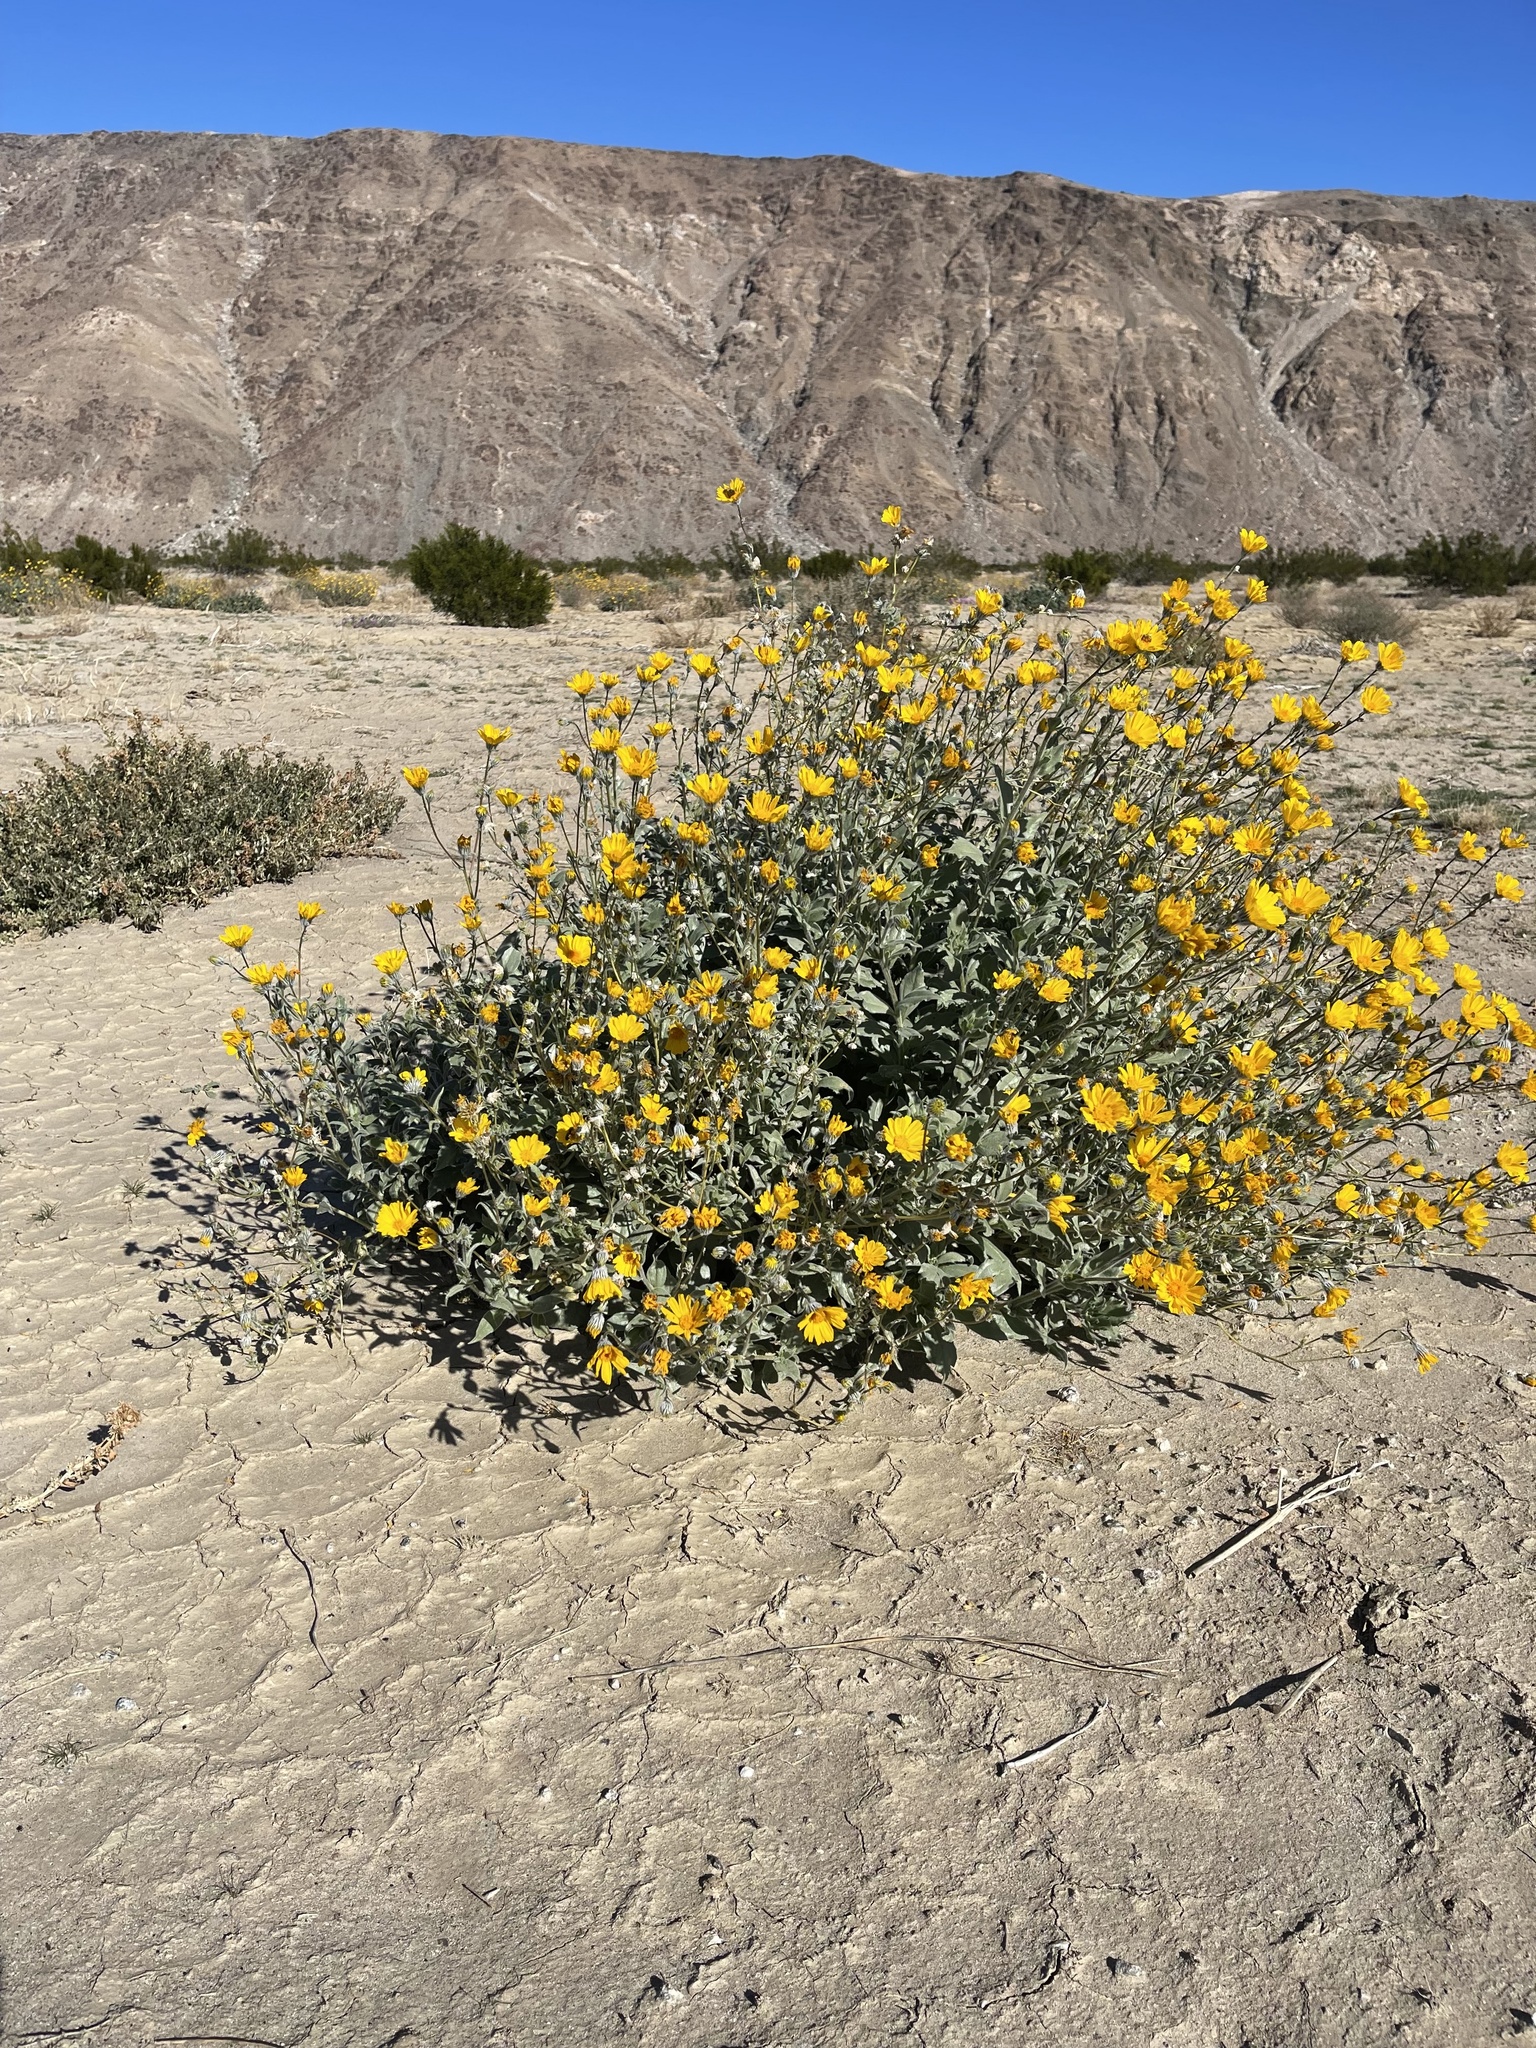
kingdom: Plantae
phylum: Tracheophyta
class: Magnoliopsida
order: Asterales
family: Asteraceae
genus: Geraea
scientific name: Geraea canescens
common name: Desert-gold
